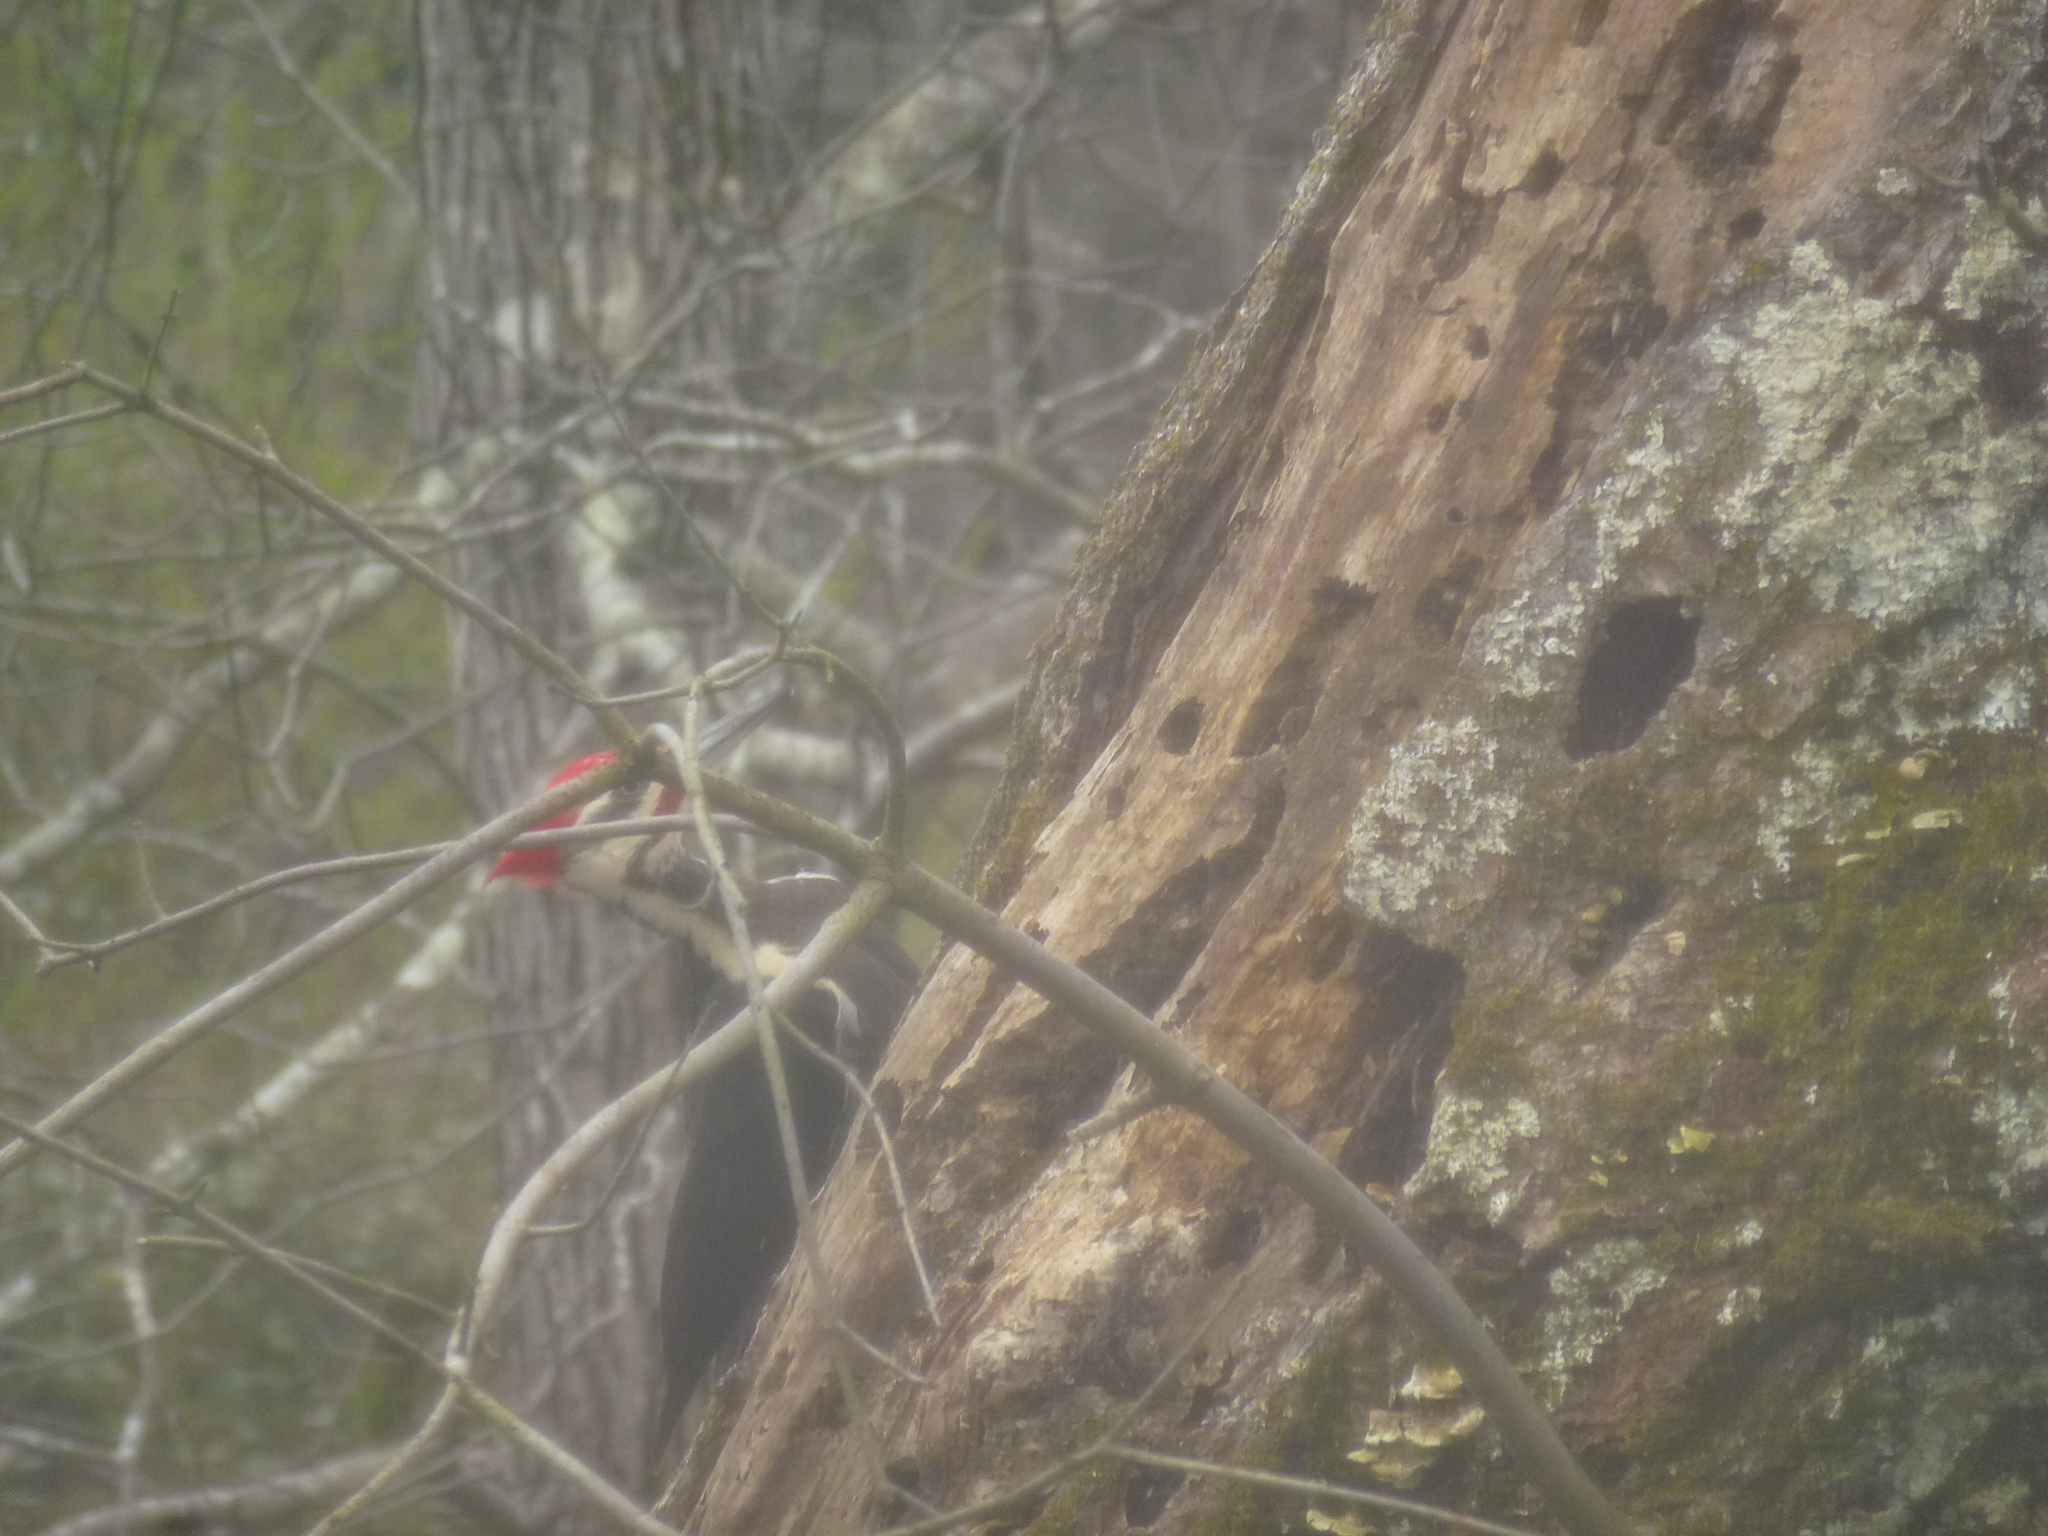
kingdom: Animalia
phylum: Chordata
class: Aves
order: Piciformes
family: Picidae
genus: Dryocopus
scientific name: Dryocopus pileatus
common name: Pileated woodpecker
